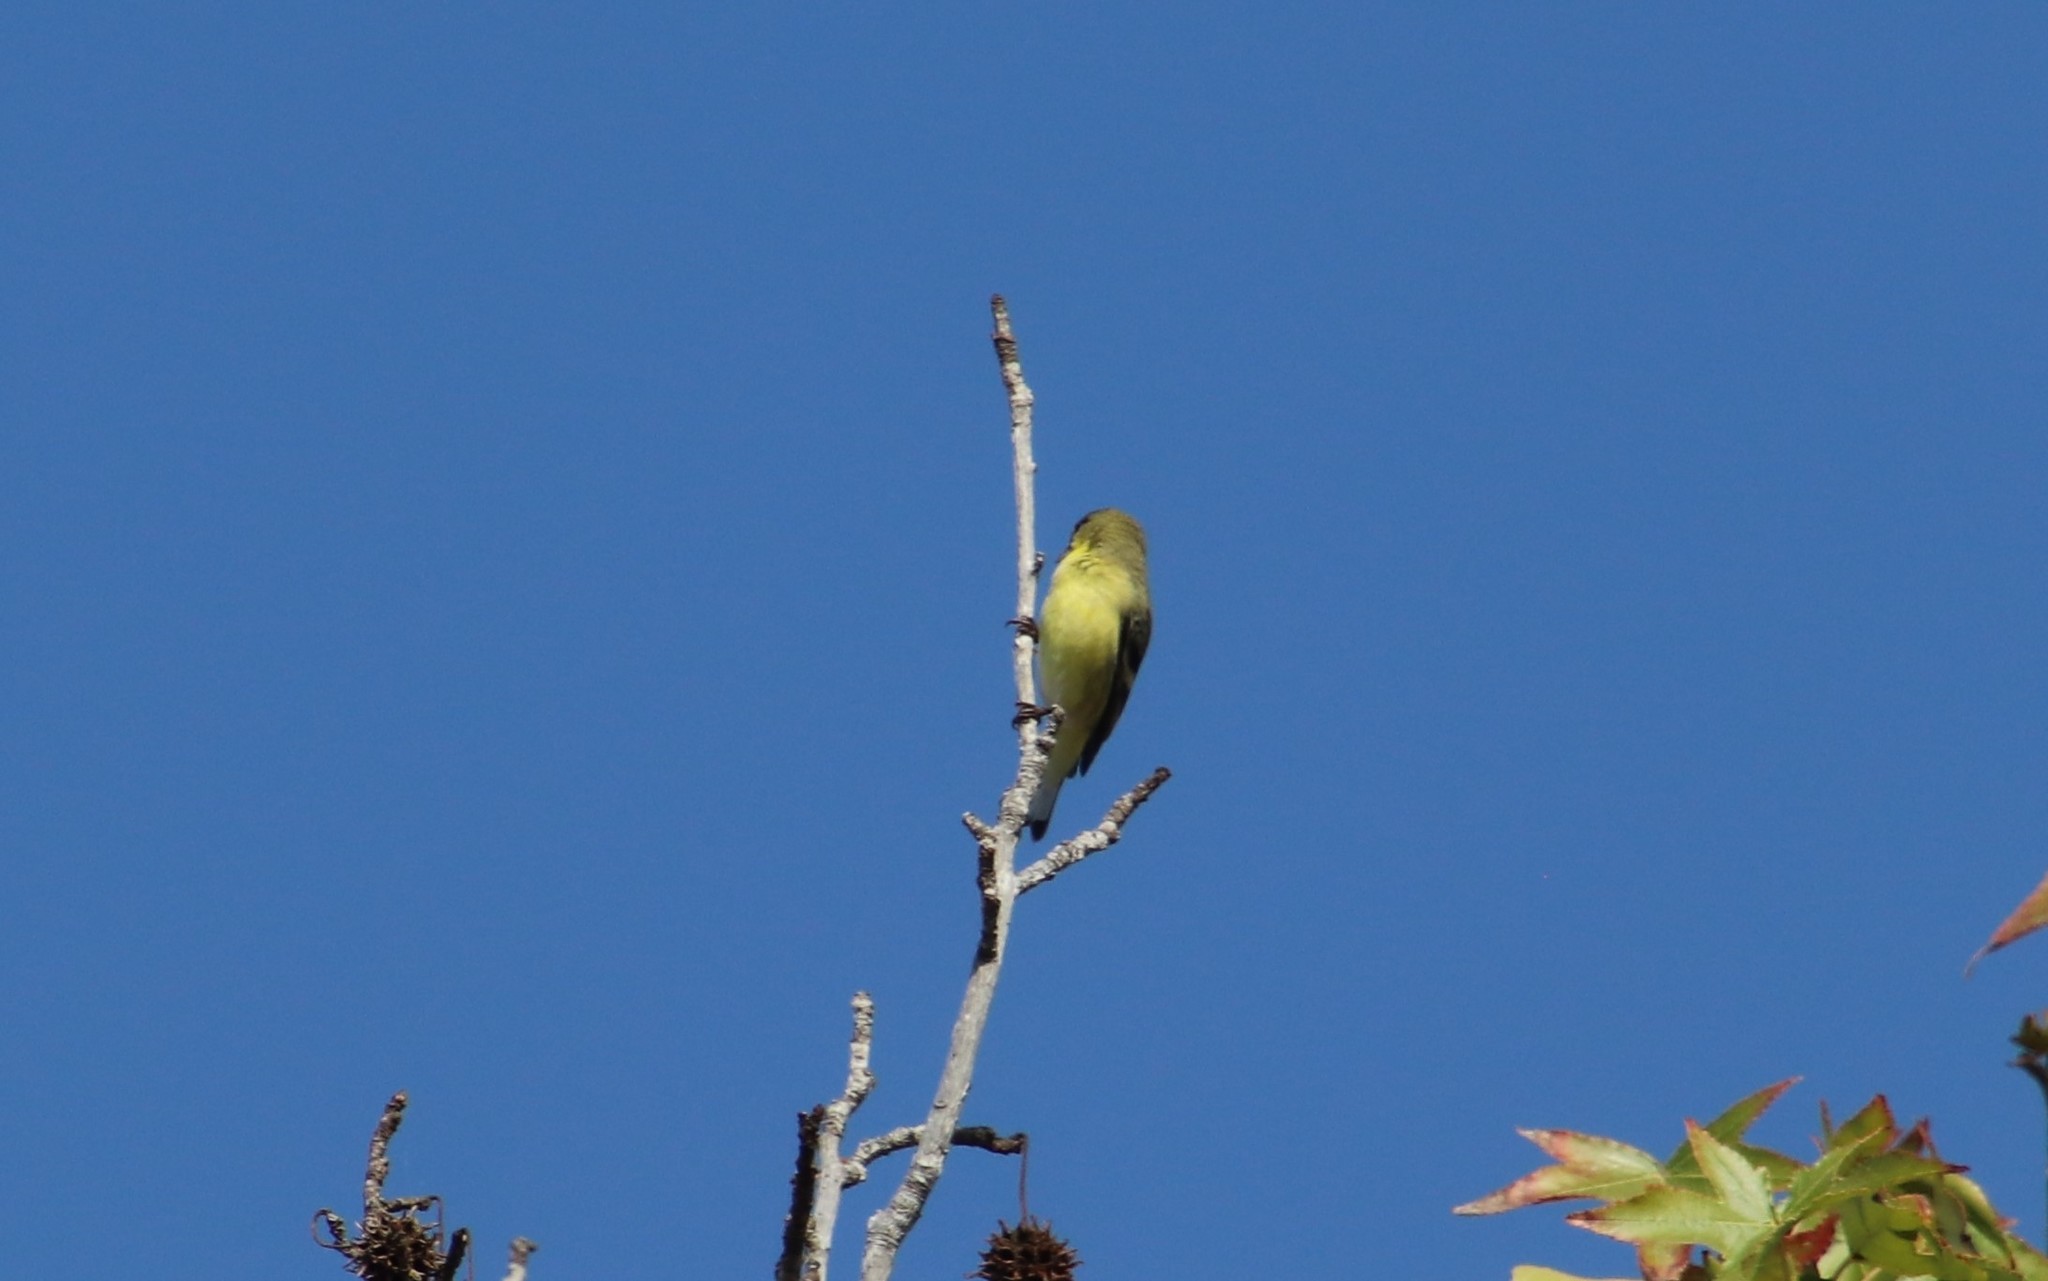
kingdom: Animalia
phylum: Chordata
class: Aves
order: Passeriformes
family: Fringillidae
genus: Spinus
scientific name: Spinus psaltria
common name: Lesser goldfinch
